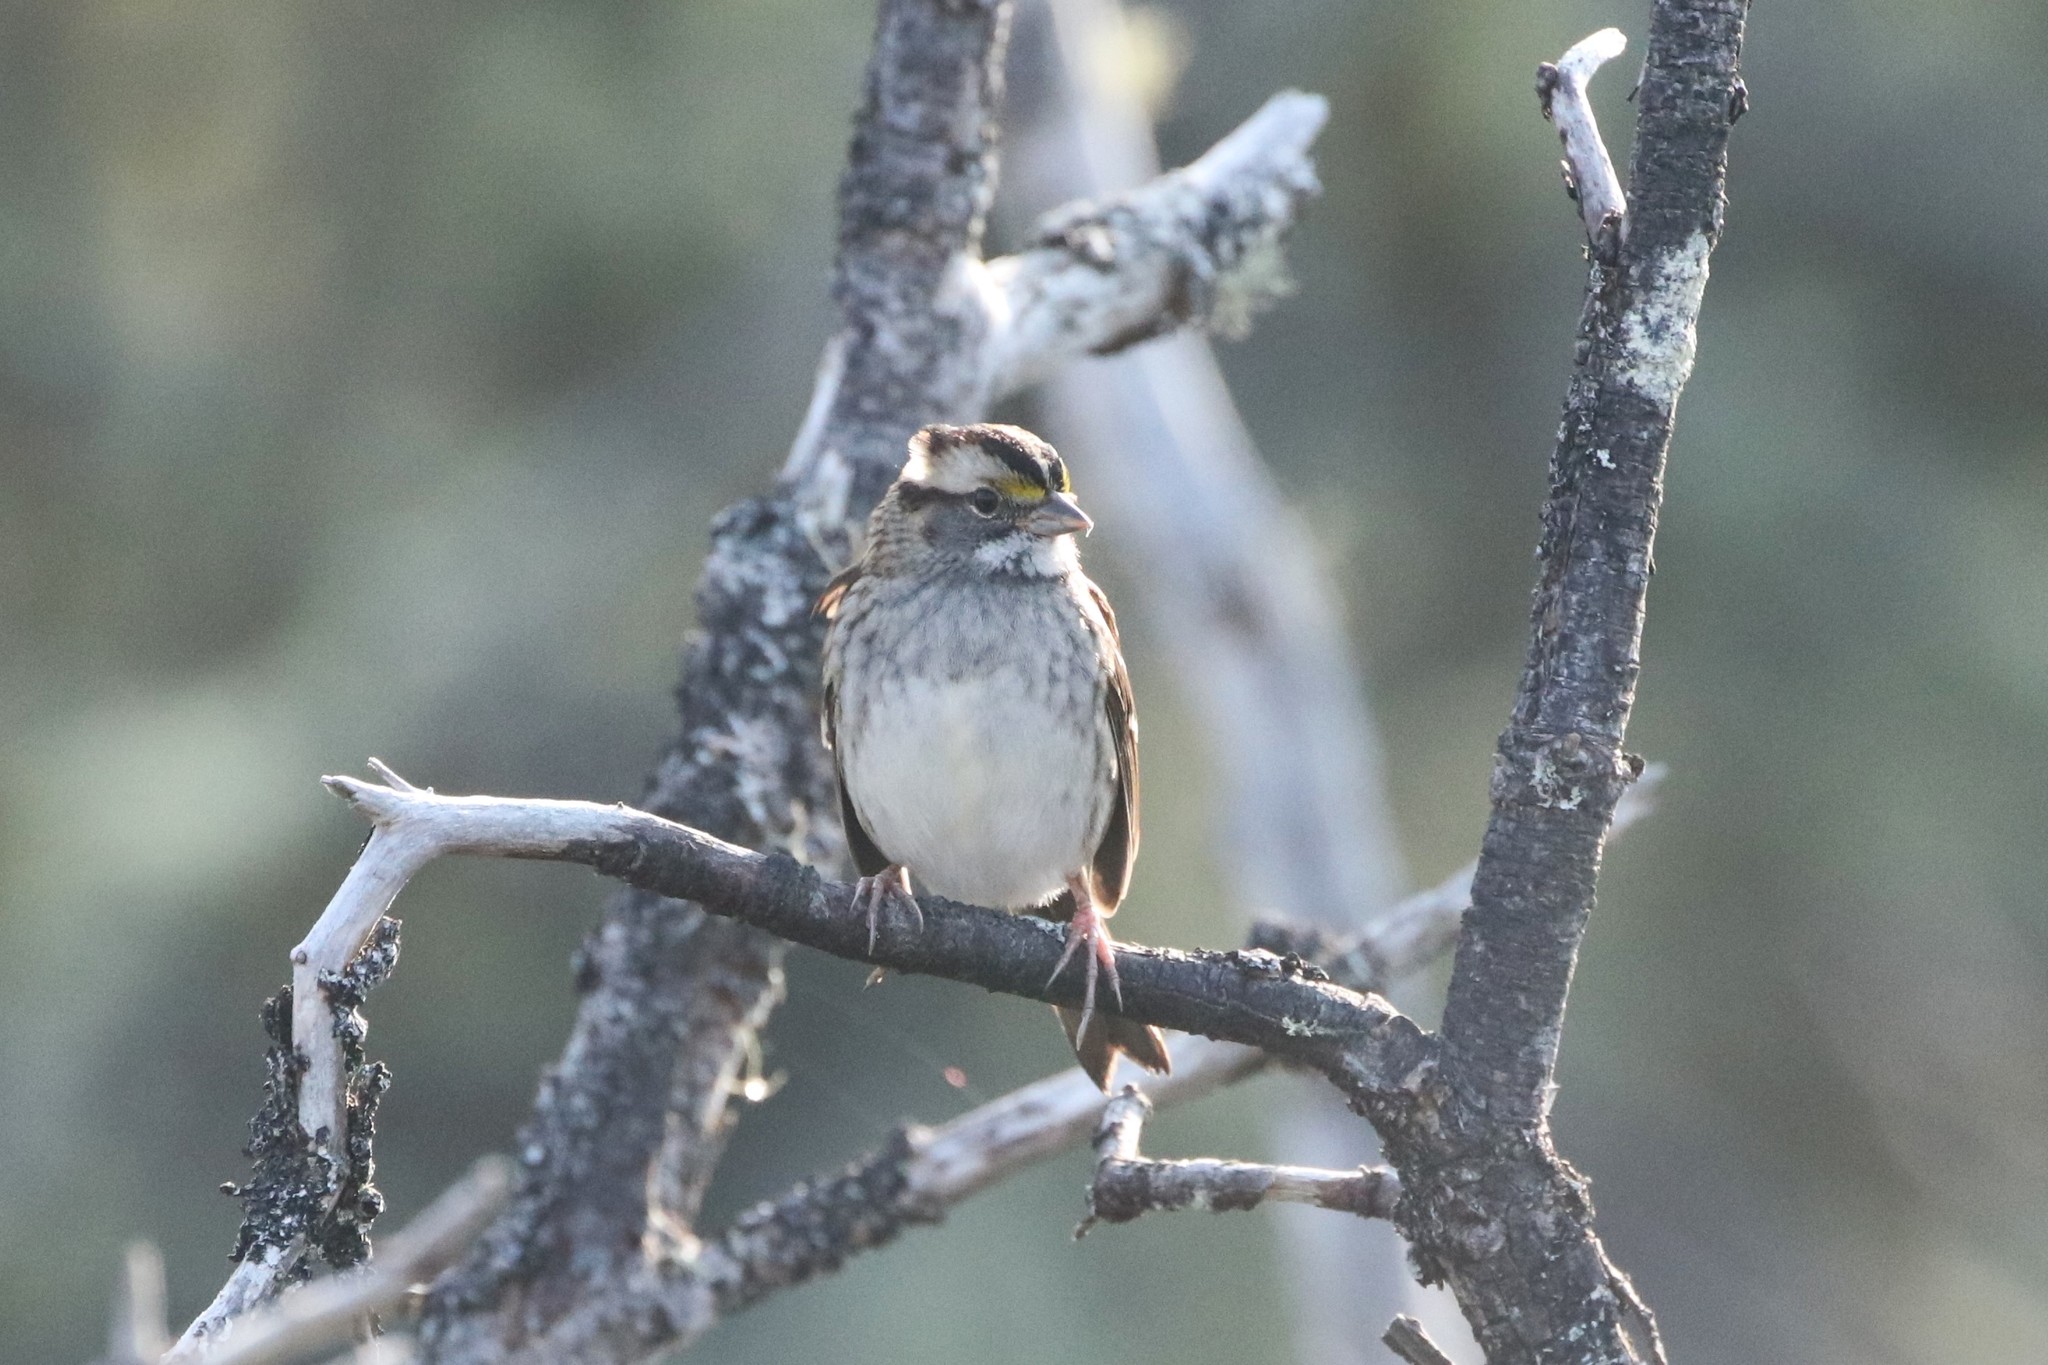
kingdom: Animalia
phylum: Chordata
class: Aves
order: Passeriformes
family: Passerellidae
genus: Zonotrichia
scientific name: Zonotrichia albicollis
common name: White-throated sparrow
